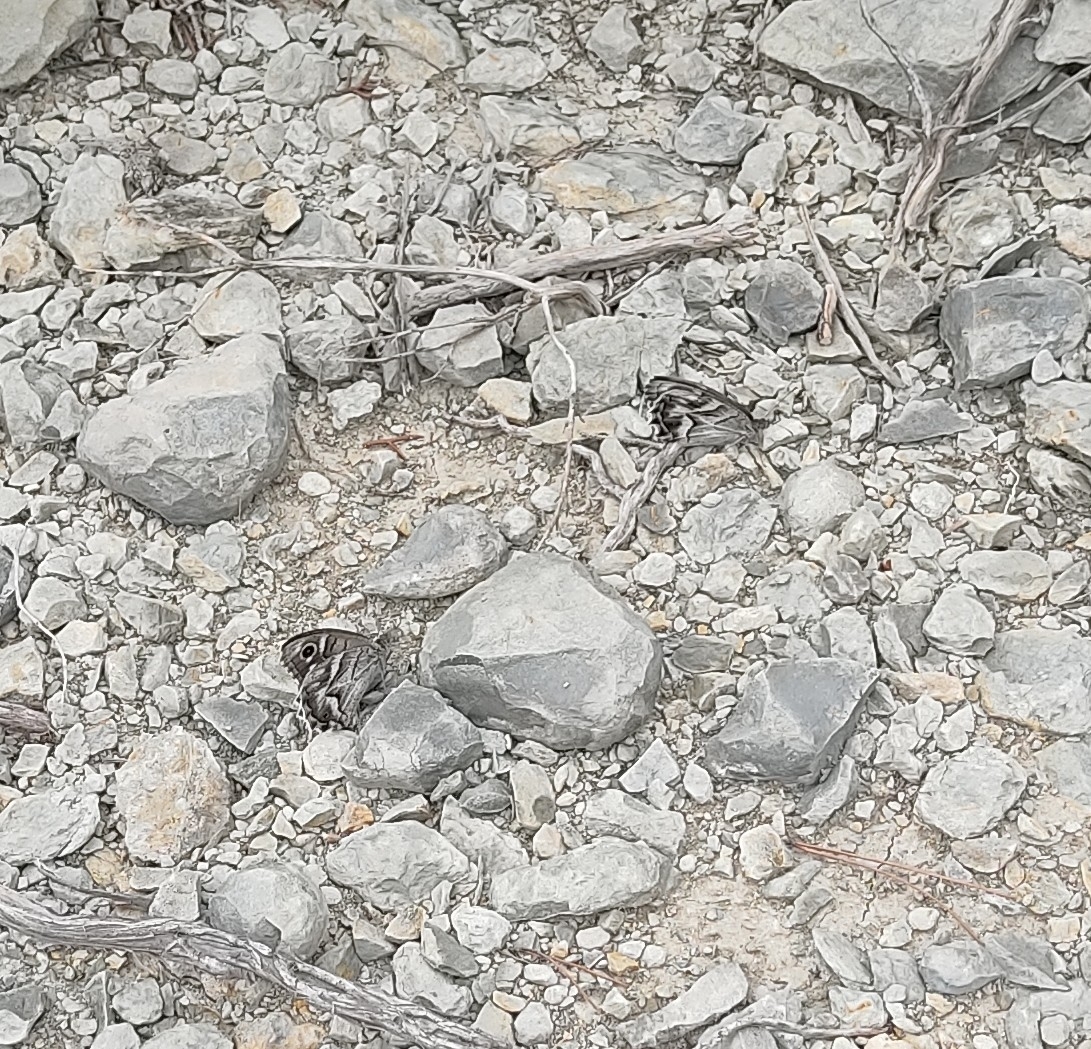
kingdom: Animalia
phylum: Arthropoda
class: Insecta
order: Lepidoptera
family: Nymphalidae
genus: Hipparchia
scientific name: Hipparchia fidia
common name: Striped grayling
